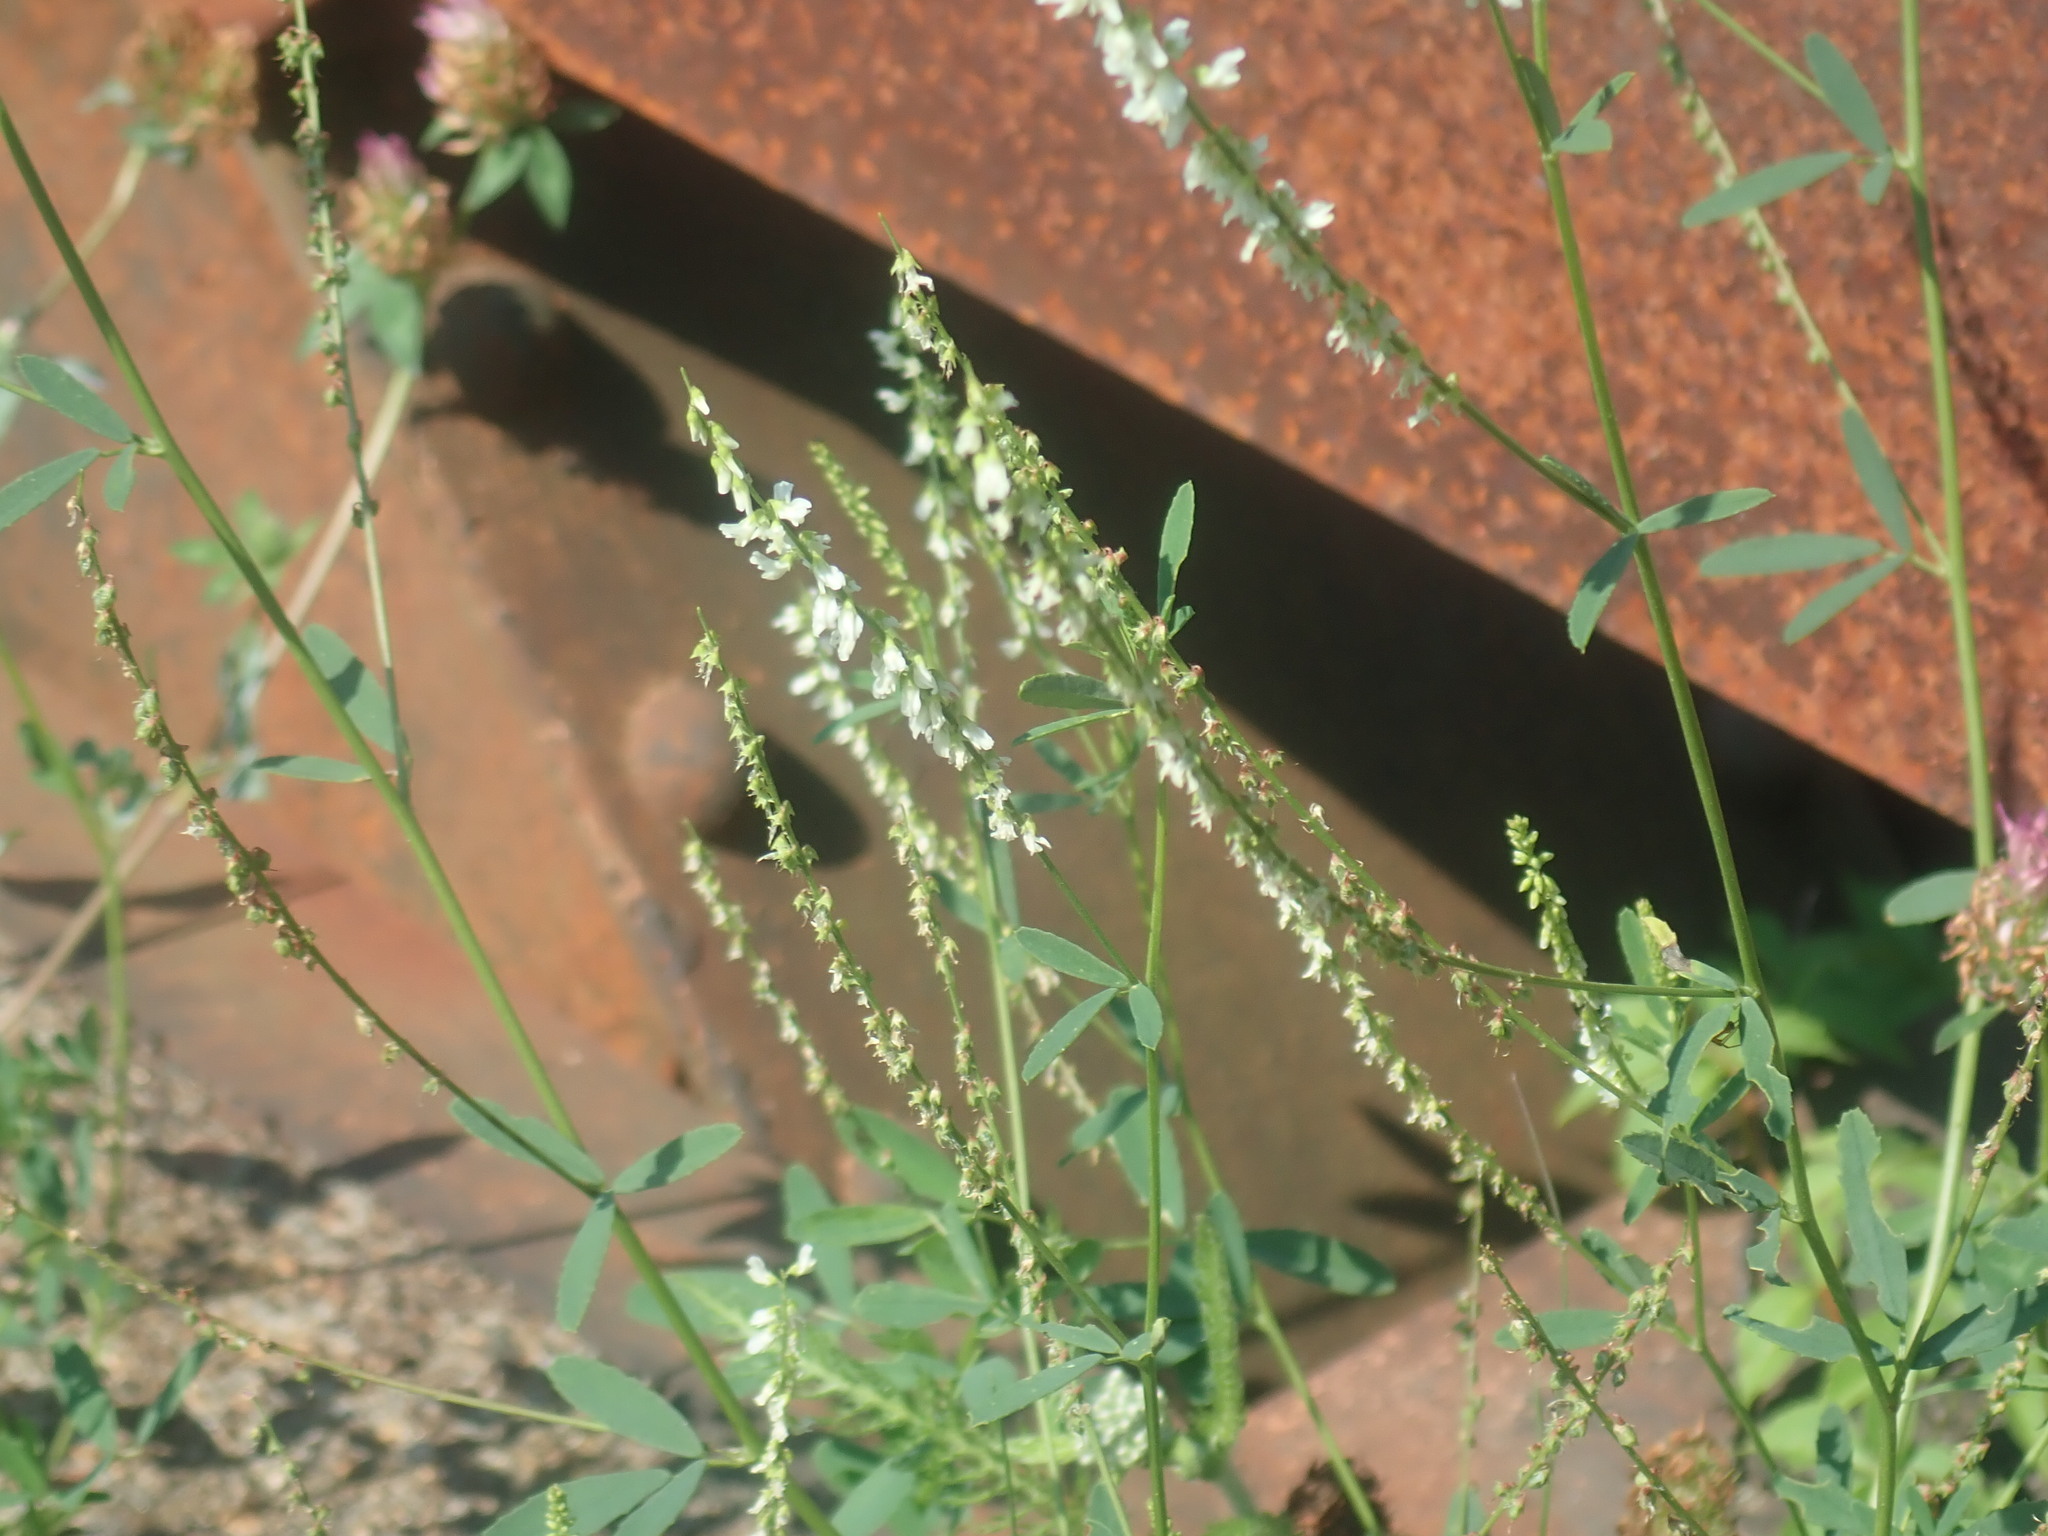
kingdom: Plantae
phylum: Tracheophyta
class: Magnoliopsida
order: Fabales
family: Fabaceae
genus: Melilotus
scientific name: Melilotus albus
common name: White melilot
